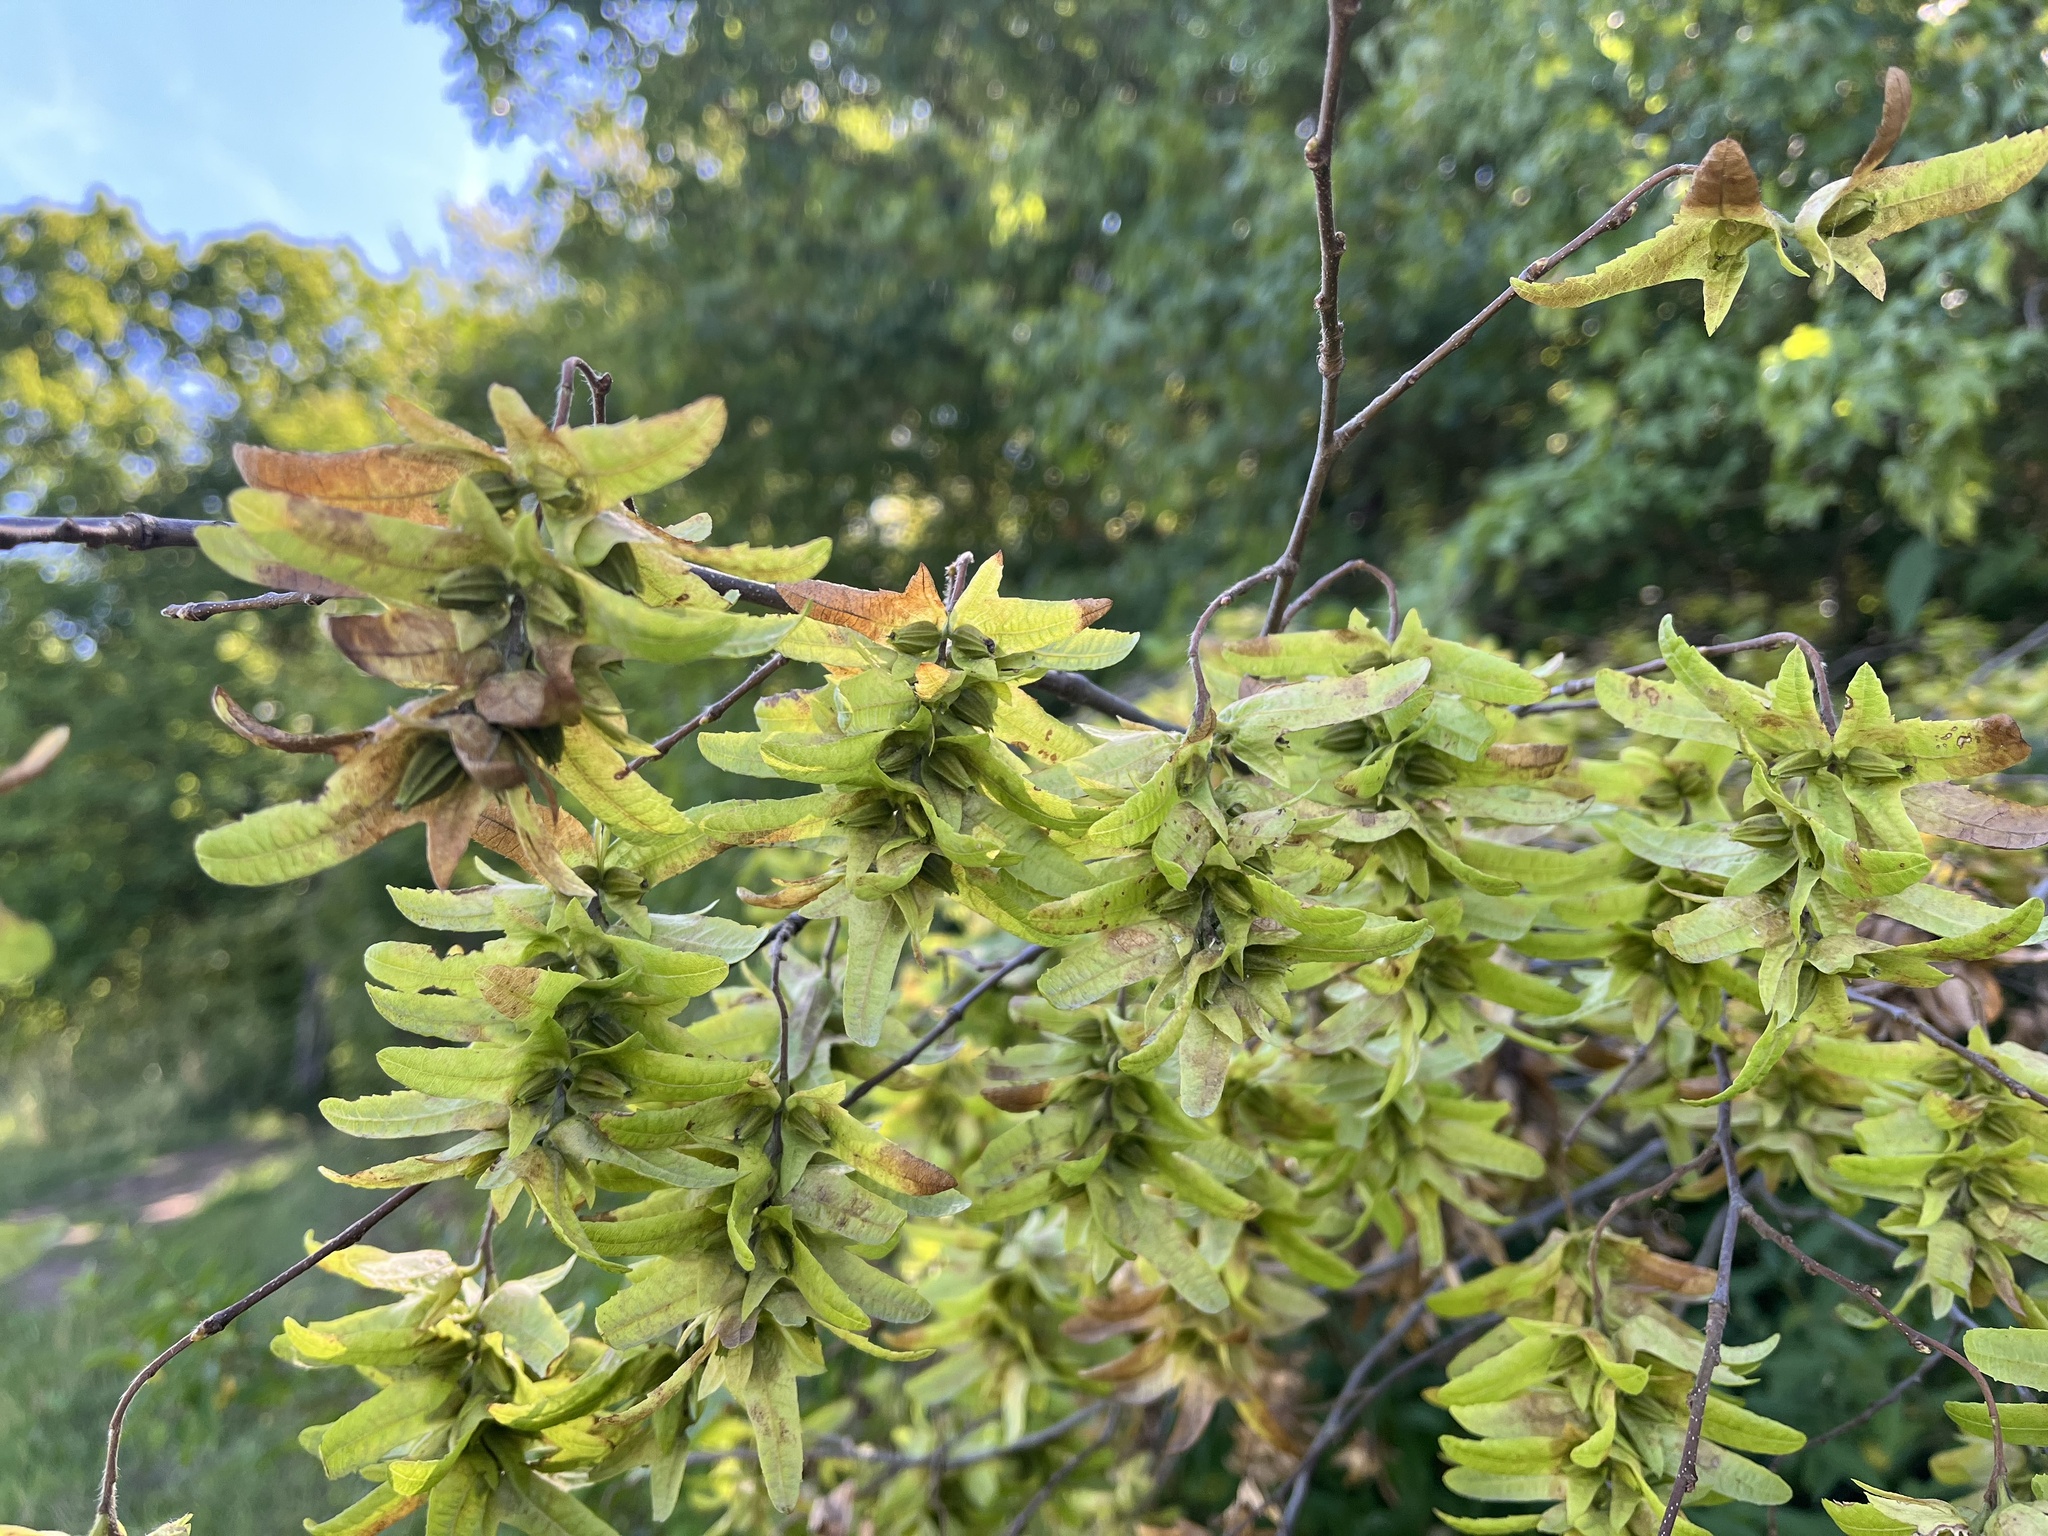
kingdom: Plantae
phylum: Tracheophyta
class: Magnoliopsida
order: Fagales
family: Betulaceae
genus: Carpinus
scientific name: Carpinus betulus
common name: Hornbeam
